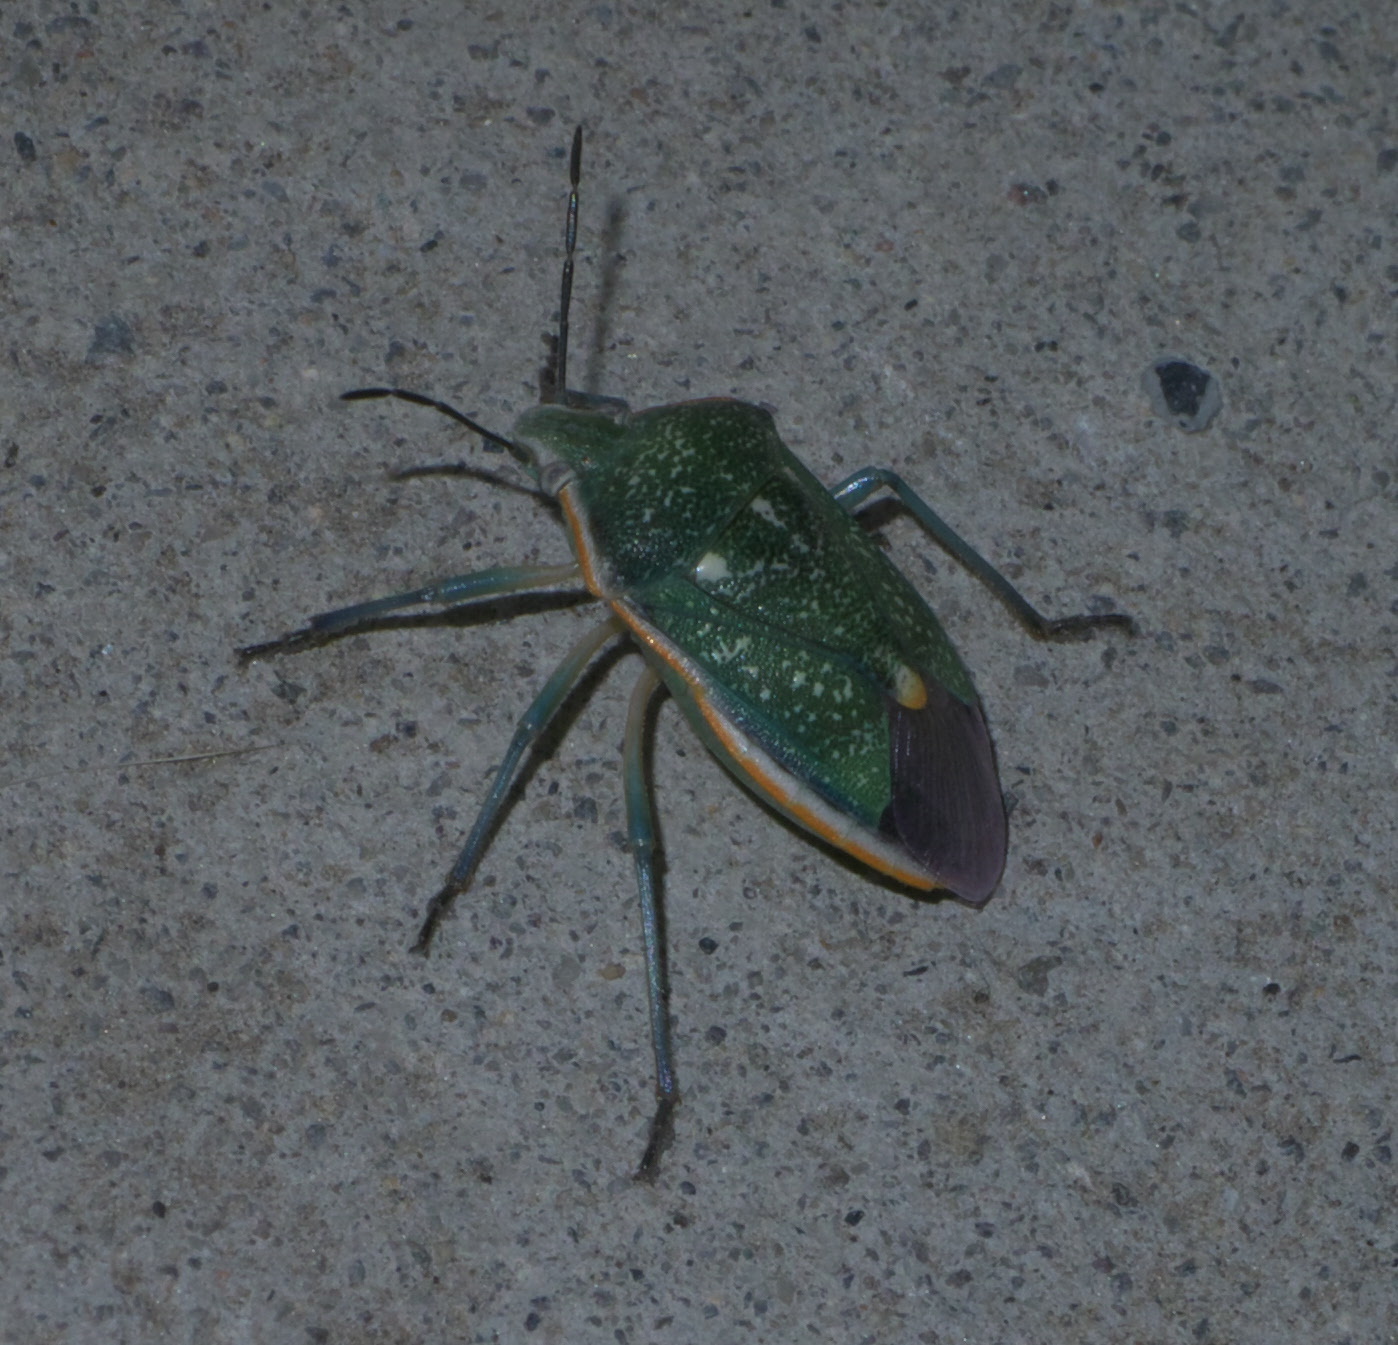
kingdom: Animalia
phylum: Arthropoda
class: Insecta
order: Hemiptera
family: Pentatomidae
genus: Chlorochroa
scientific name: Chlorochroa sayi
